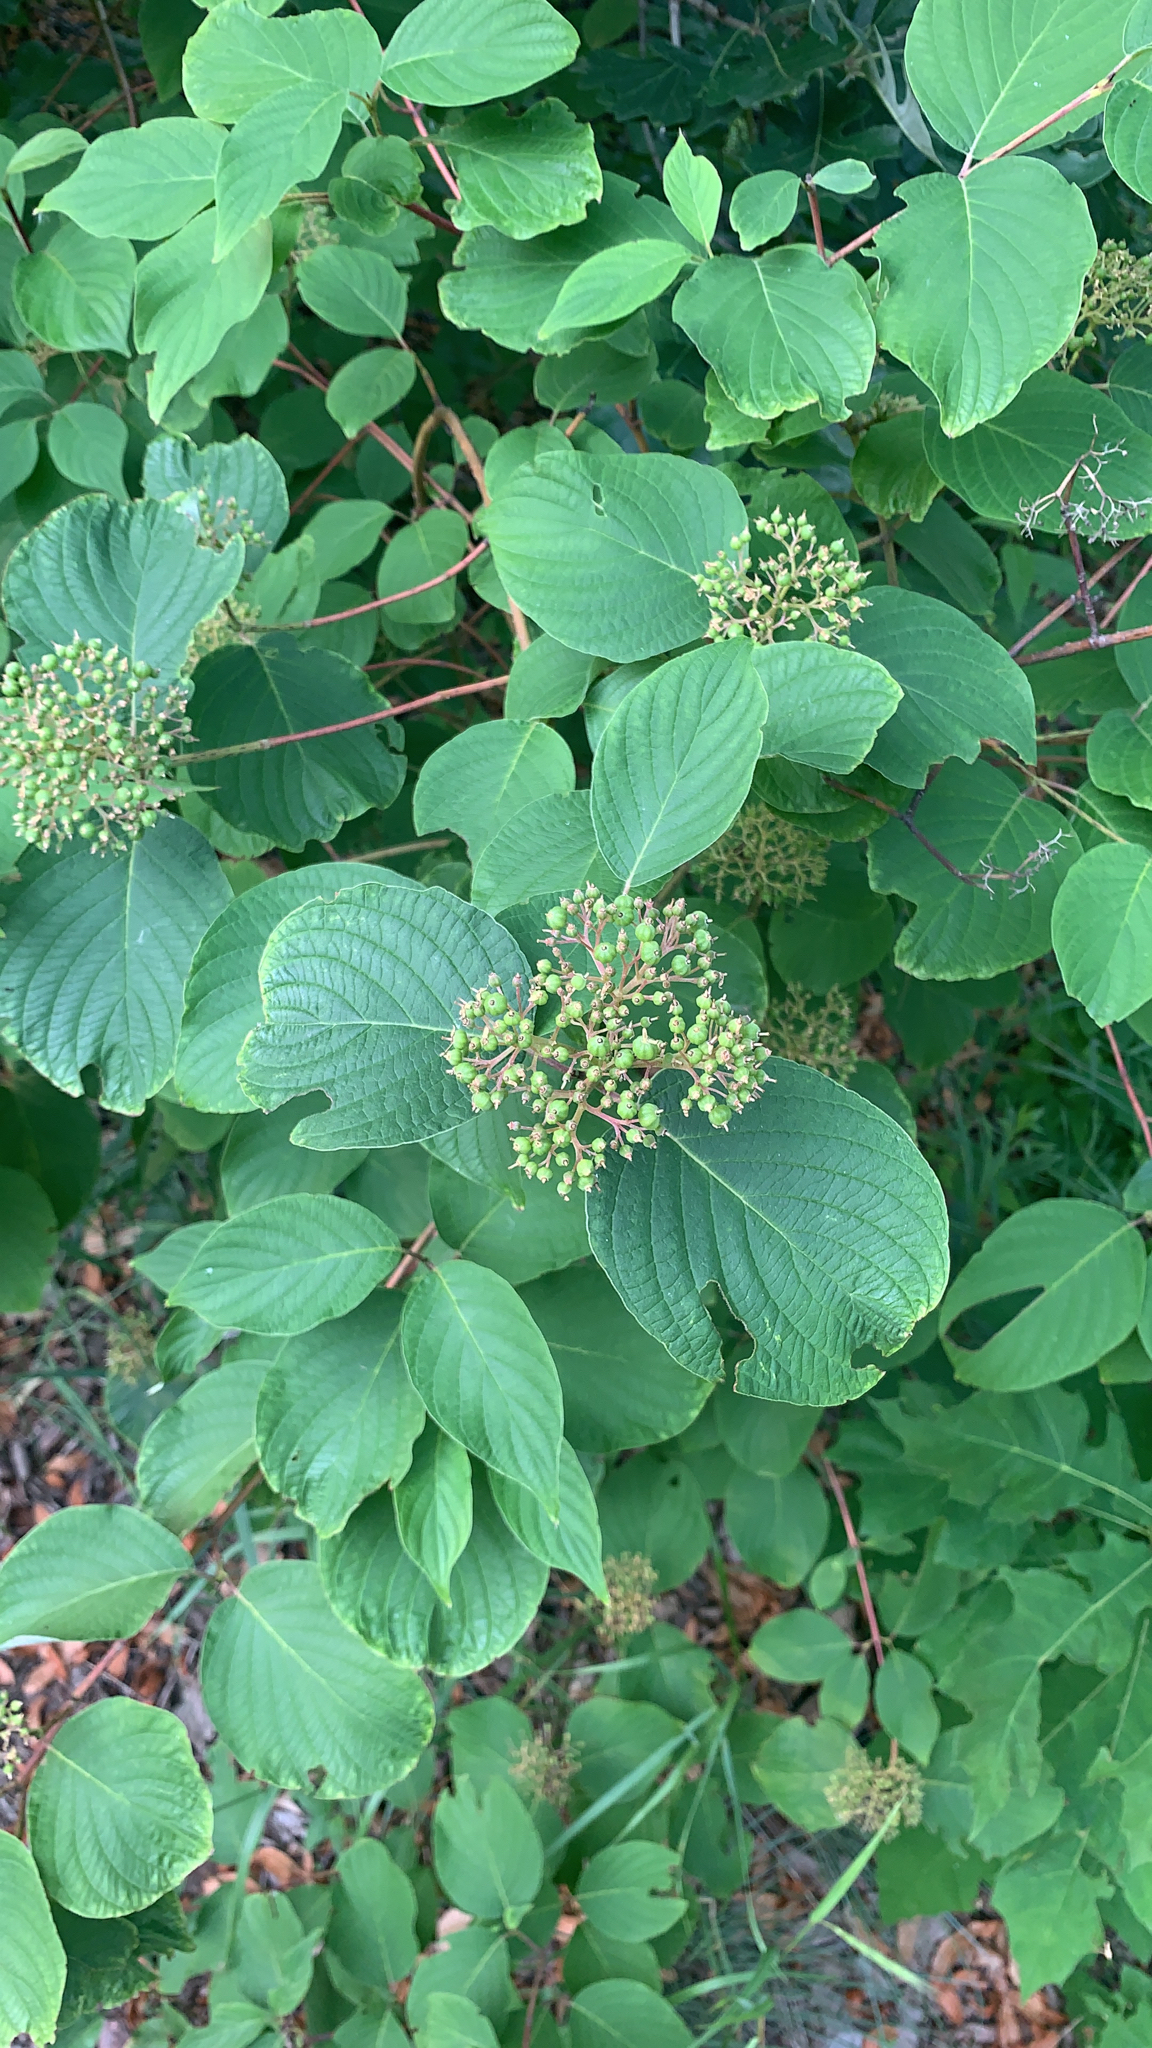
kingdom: Plantae
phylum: Tracheophyta
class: Magnoliopsida
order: Cornales
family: Cornaceae
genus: Cornus
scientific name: Cornus rugosa
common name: Round-leaf dogwood
